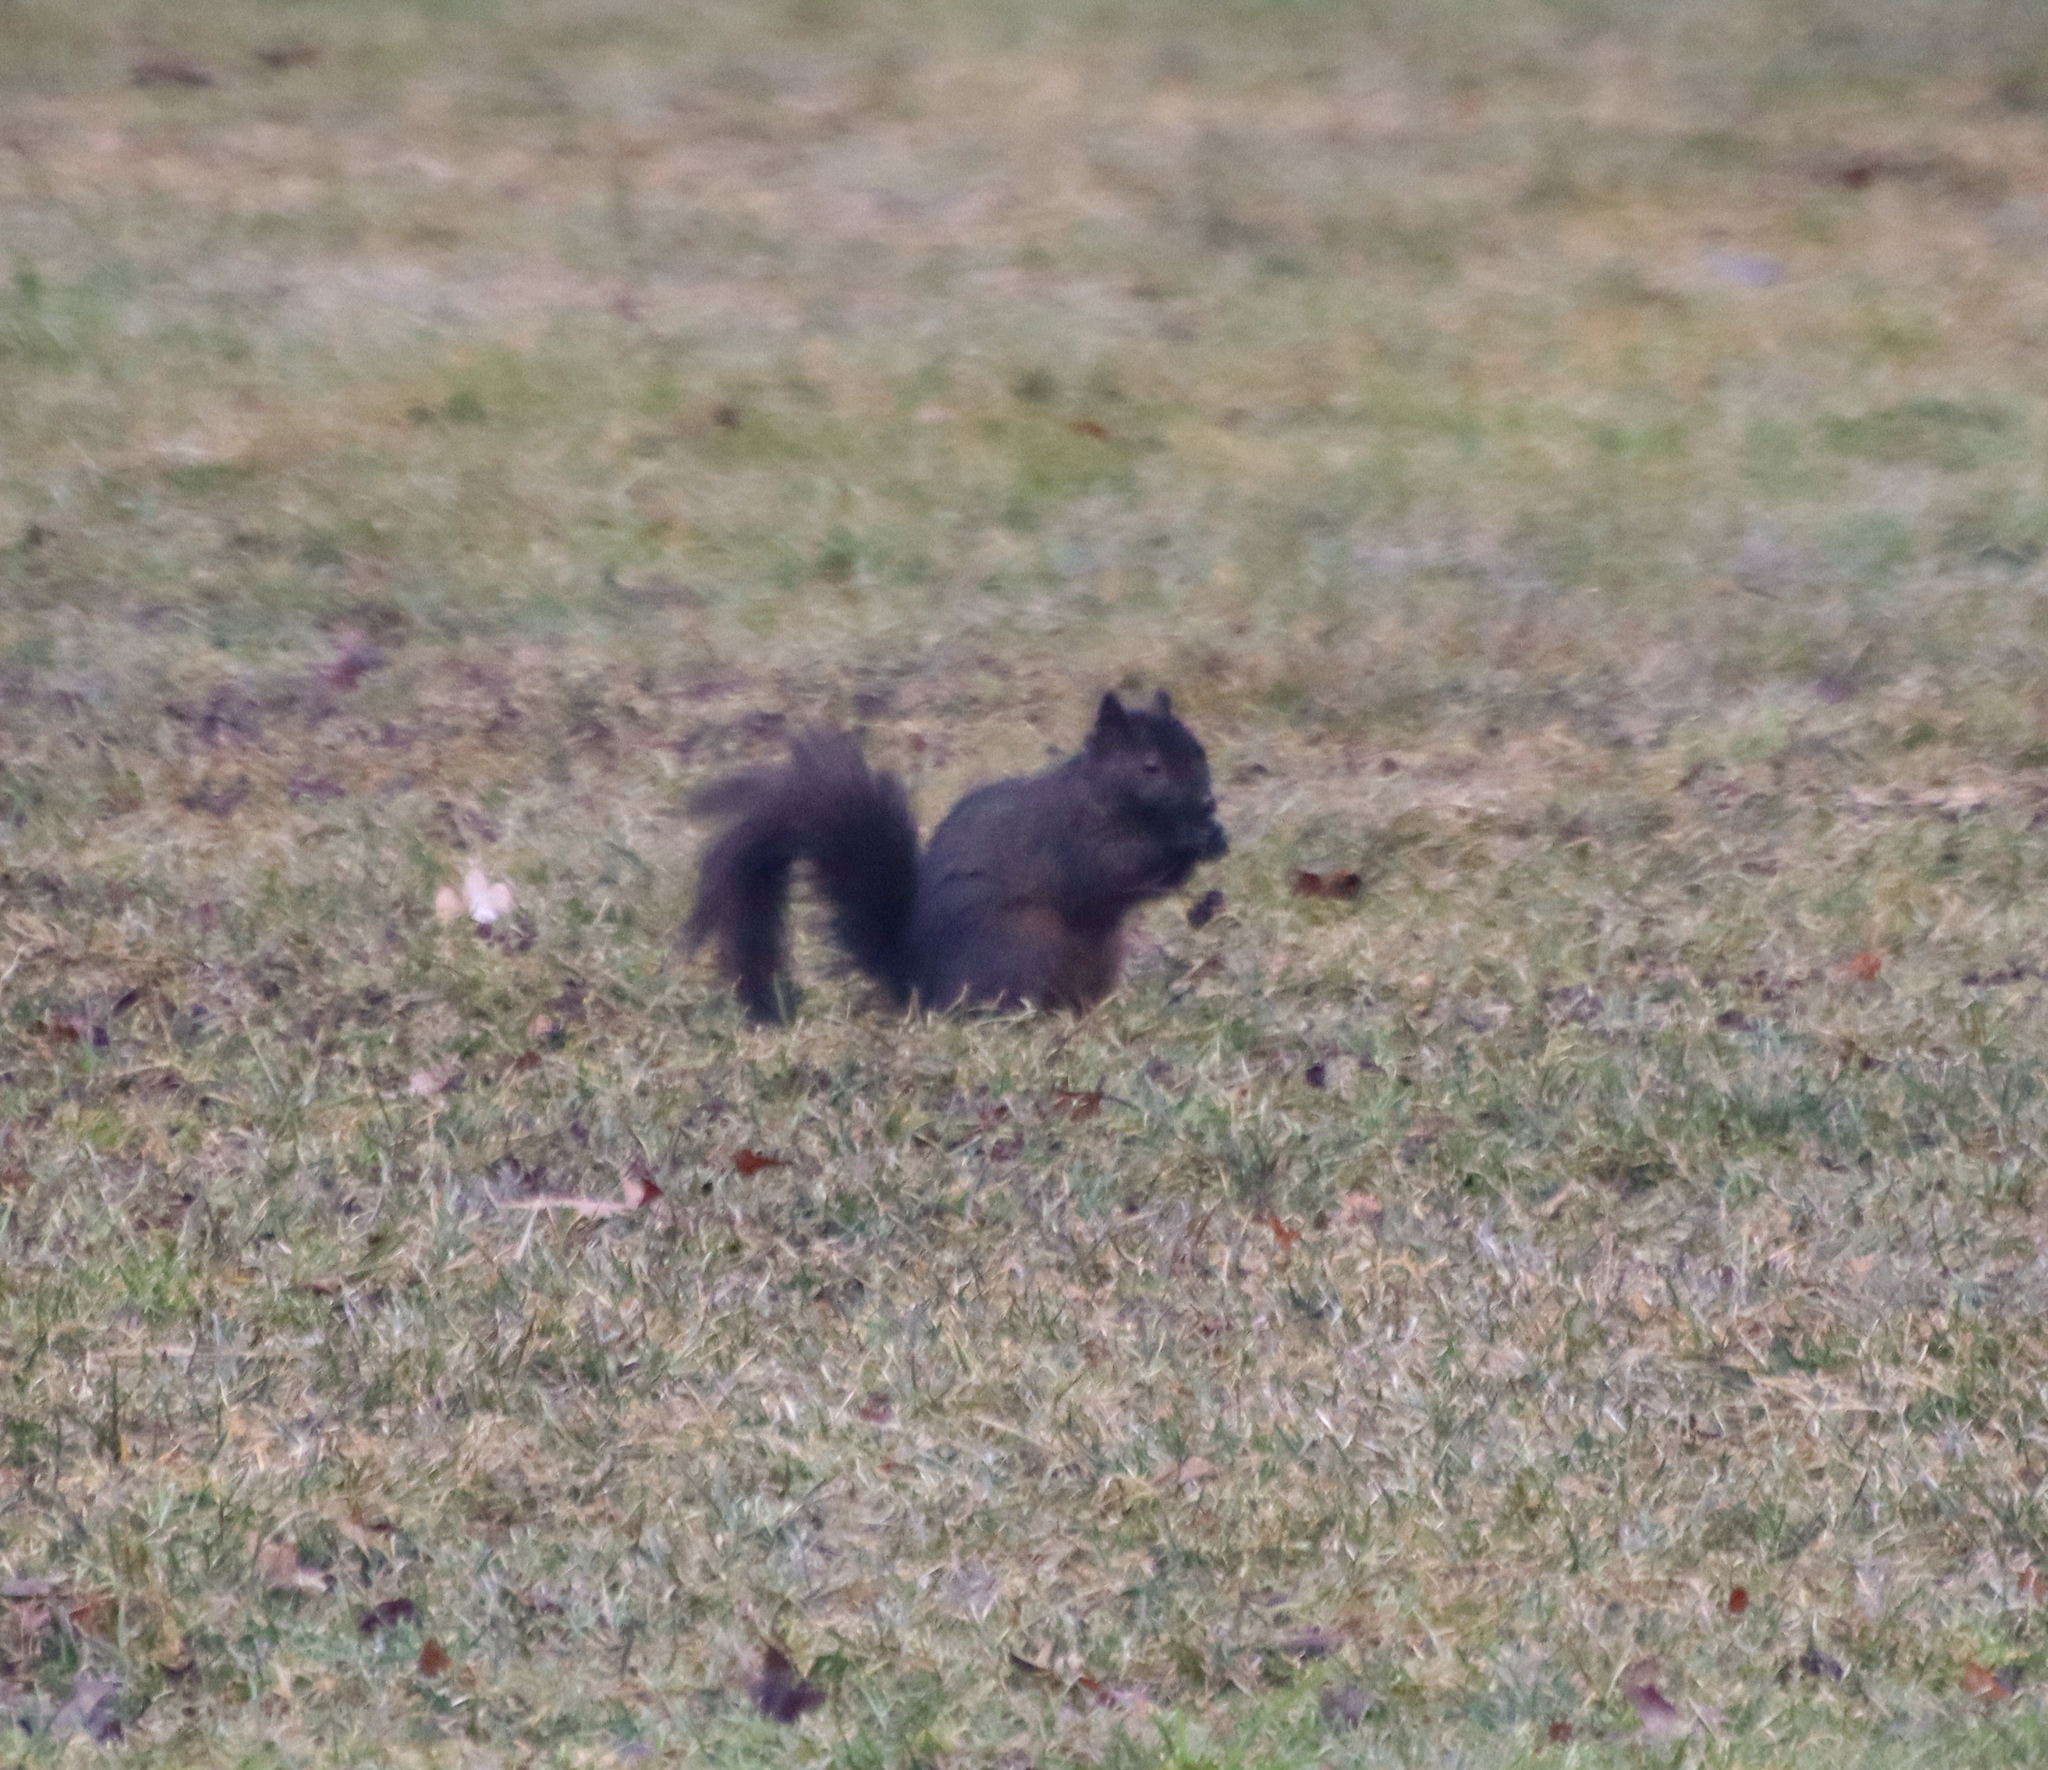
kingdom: Animalia
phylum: Chordata
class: Mammalia
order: Rodentia
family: Sciuridae
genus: Sciurus
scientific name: Sciurus carolinensis
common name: Eastern gray squirrel
